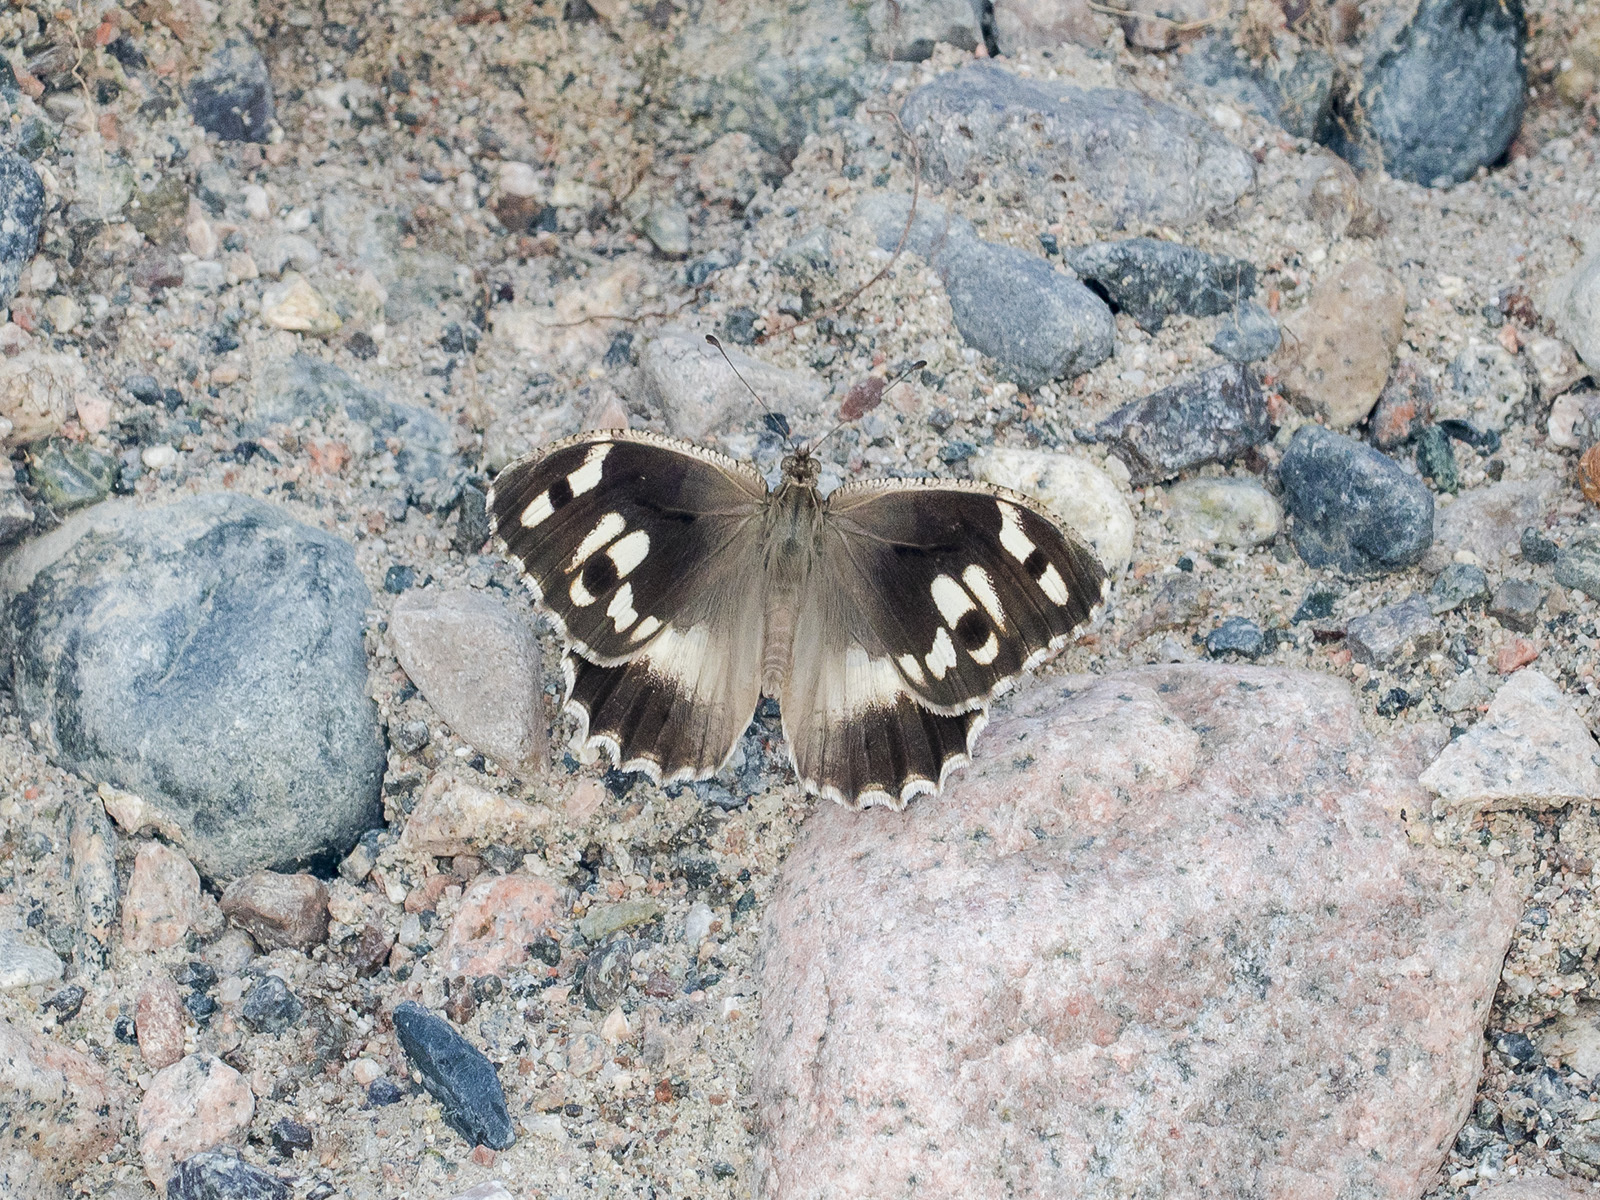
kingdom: Animalia
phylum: Arthropoda
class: Insecta
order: Lepidoptera
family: Nymphalidae
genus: Satyrus
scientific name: Satyrus Chazara enervata
